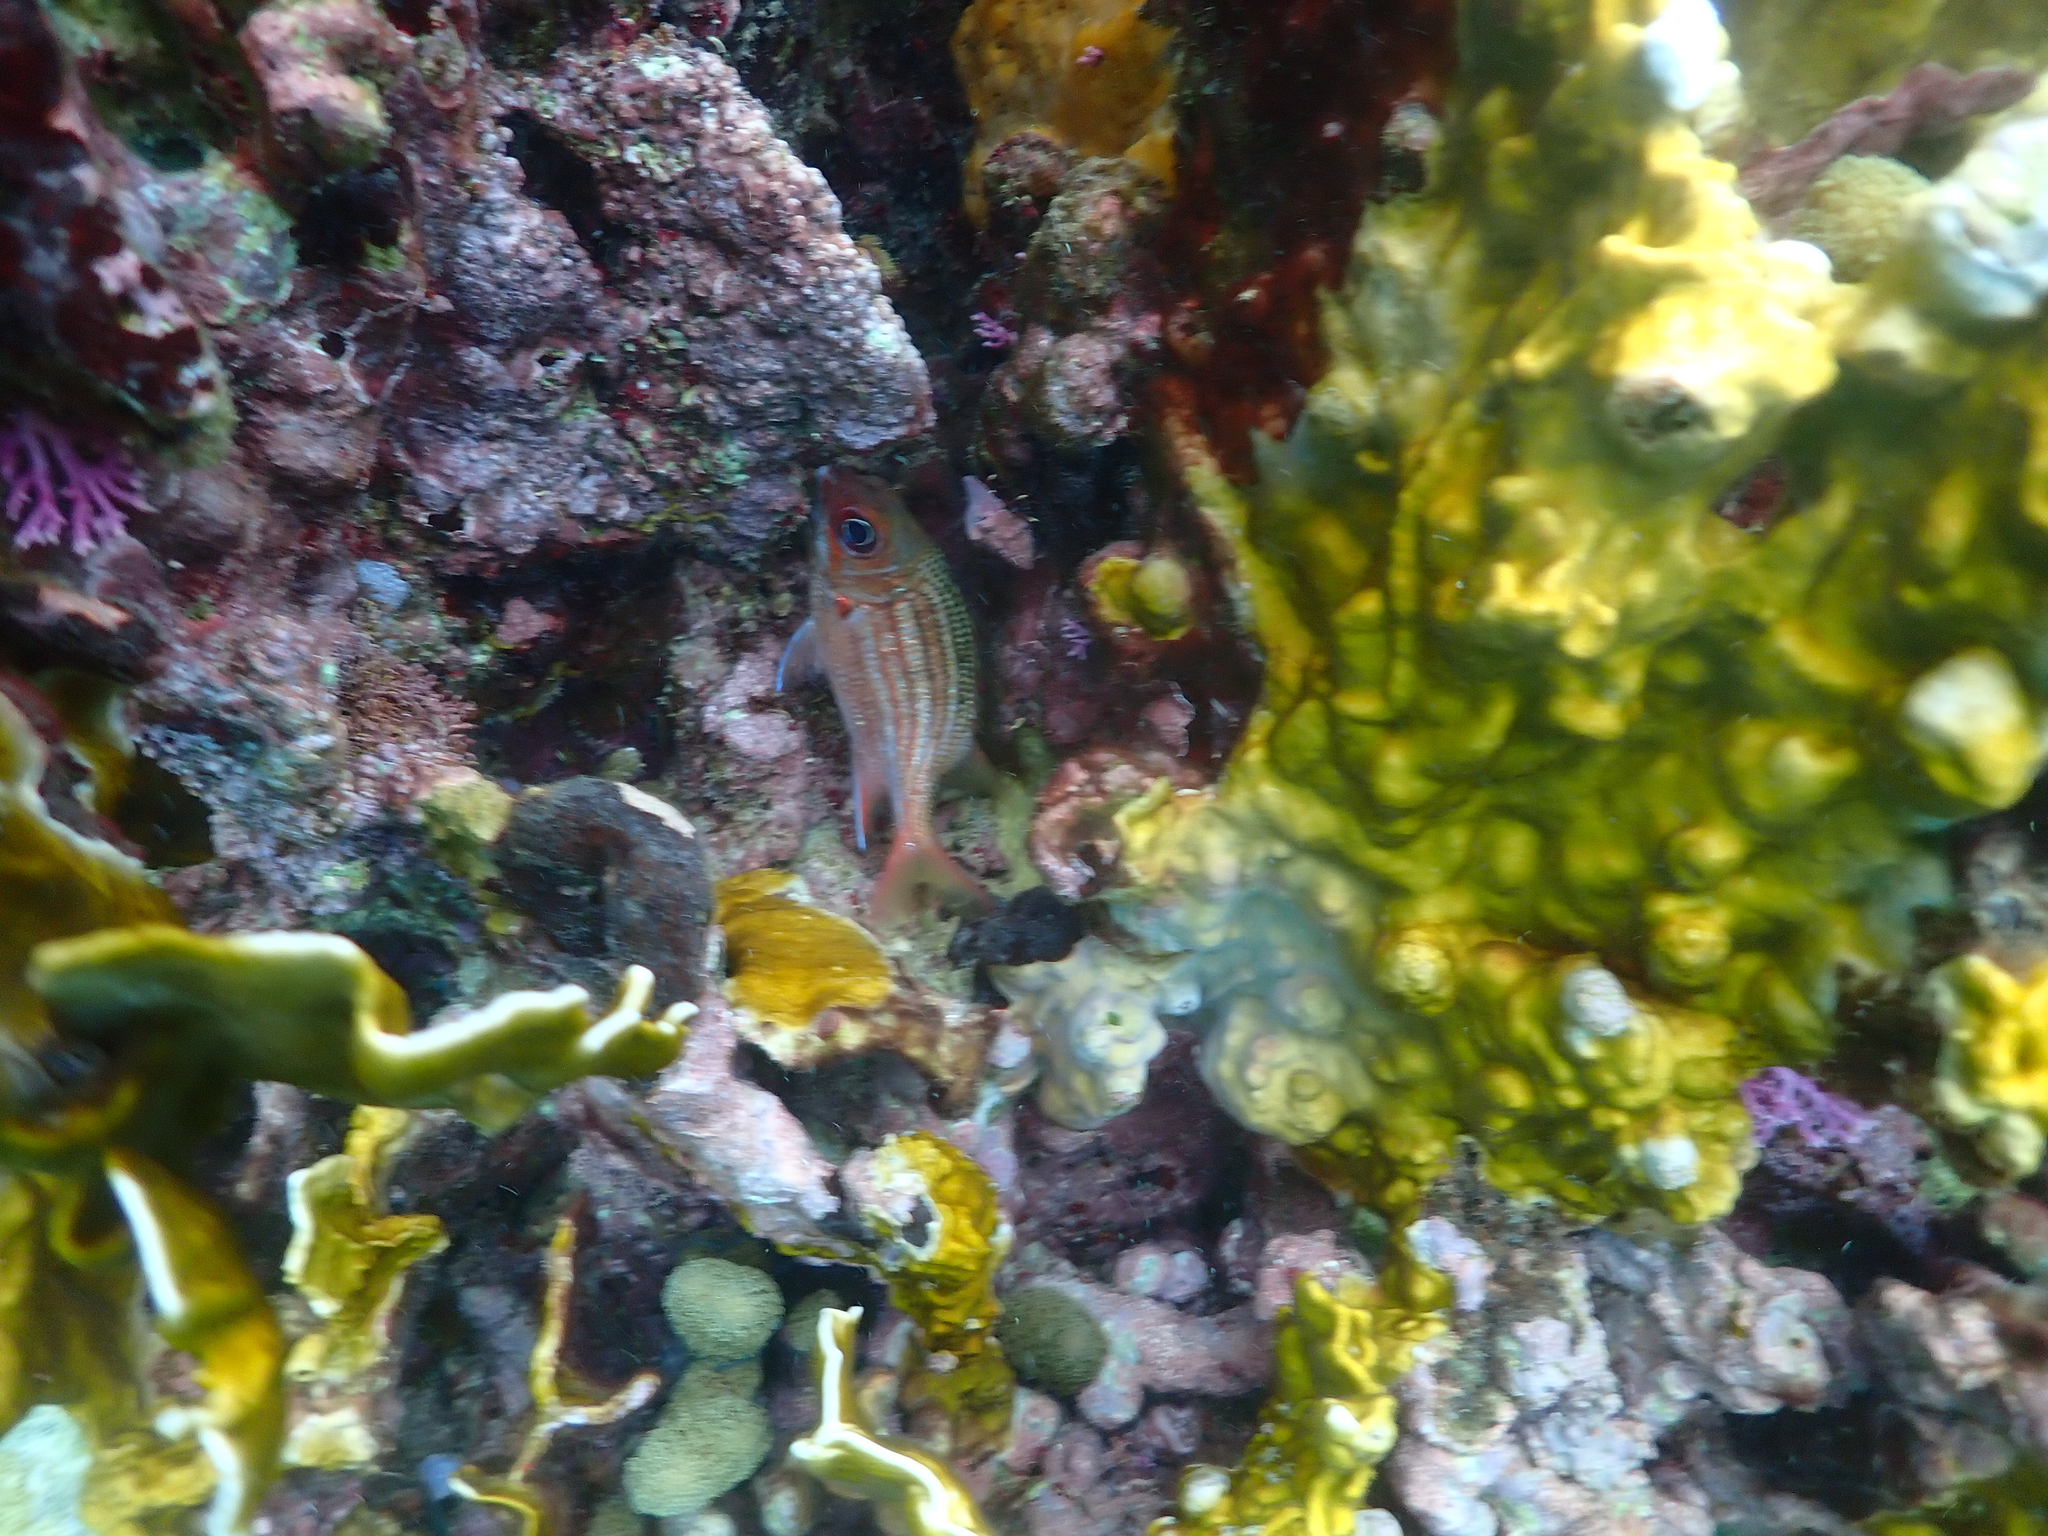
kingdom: Animalia
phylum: Chordata
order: Beryciformes
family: Holocentridae
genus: Neoniphon
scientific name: Neoniphon vexillarium
